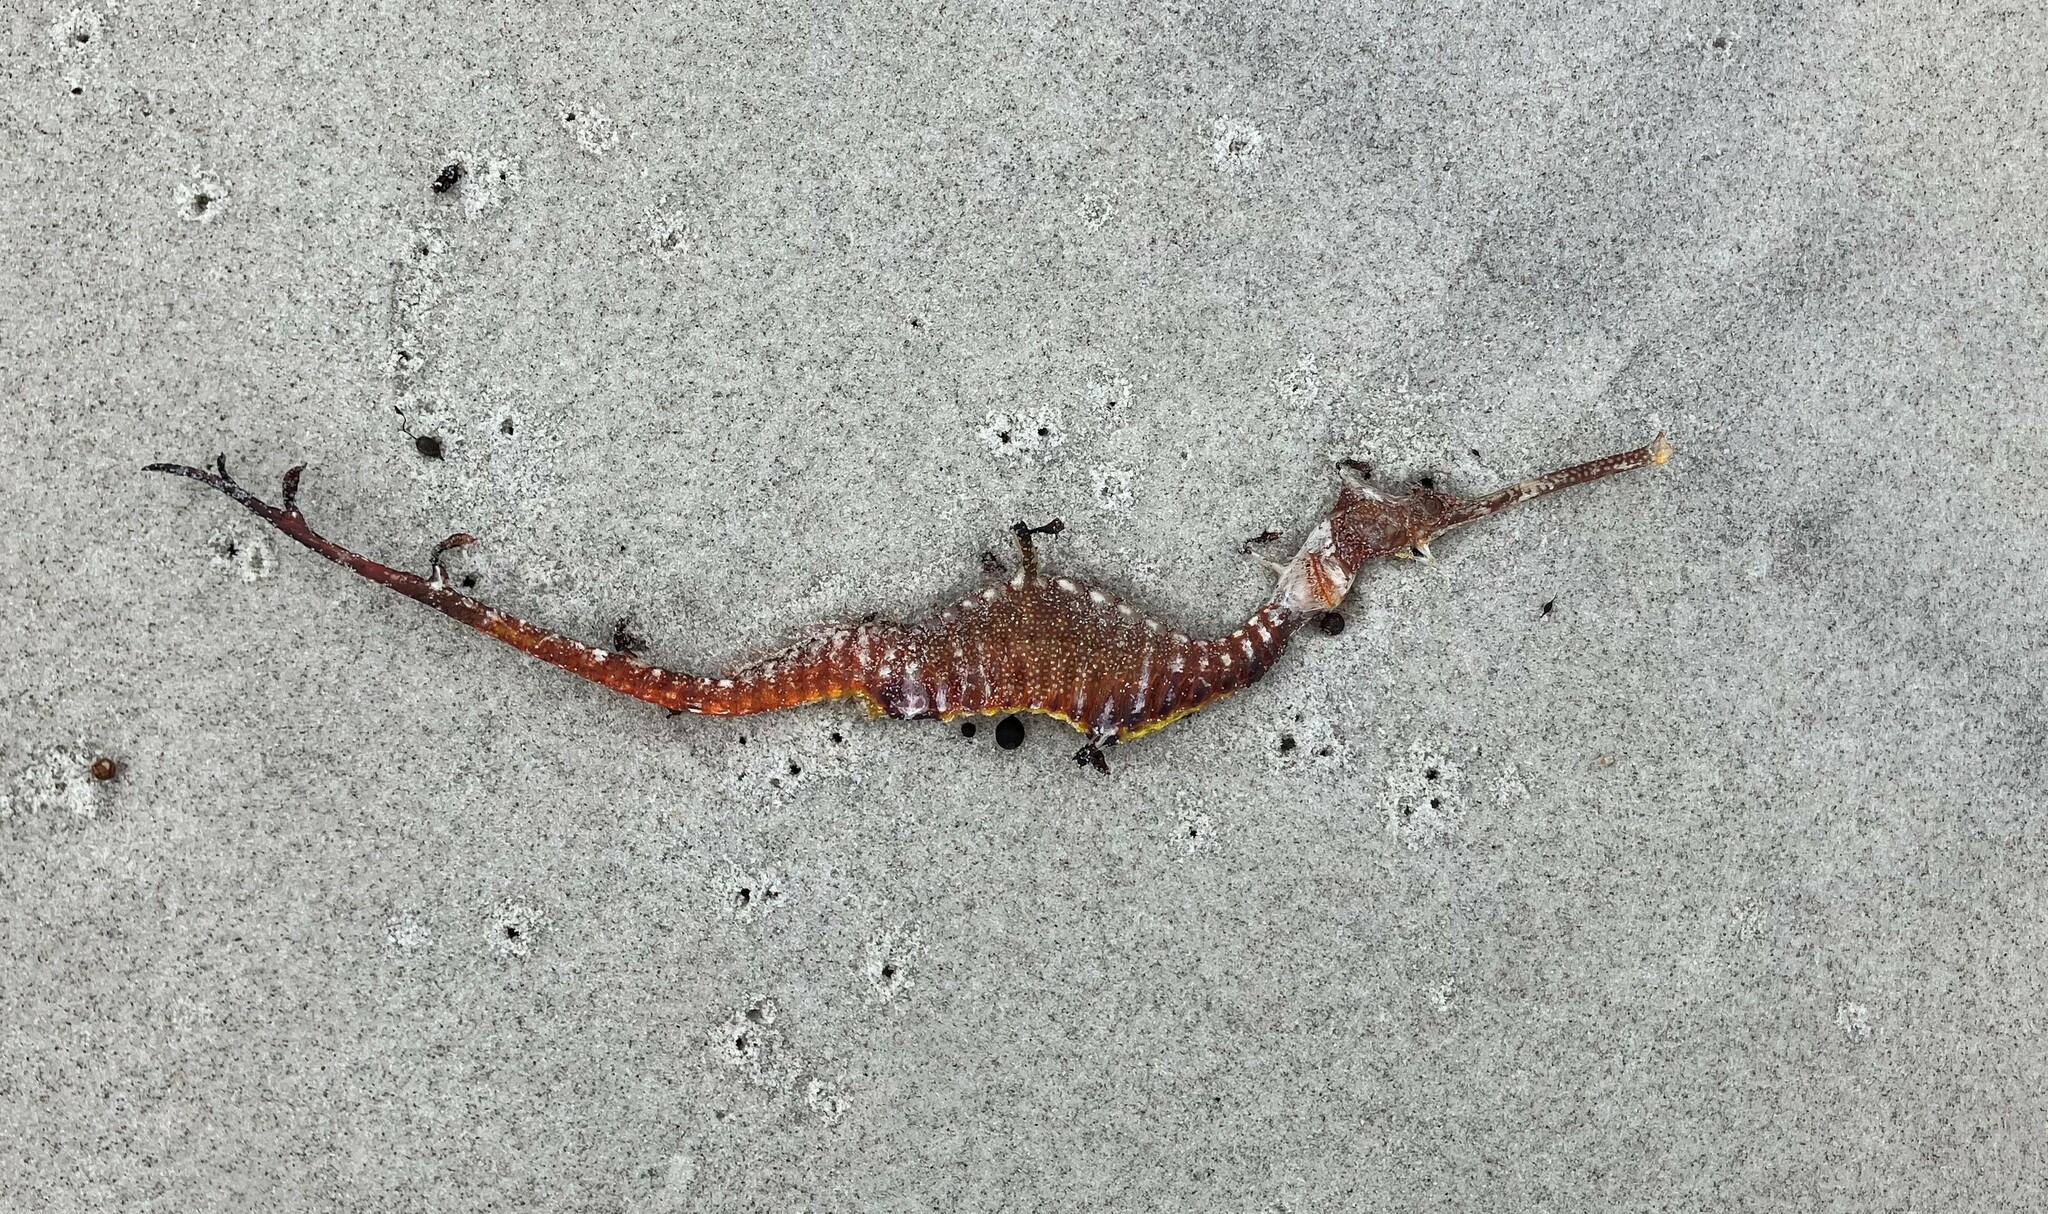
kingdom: Animalia
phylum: Chordata
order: Syngnathiformes
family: Syngnathidae
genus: Phyllopteryx
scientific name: Phyllopteryx taeniolatus
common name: Common seadragon
